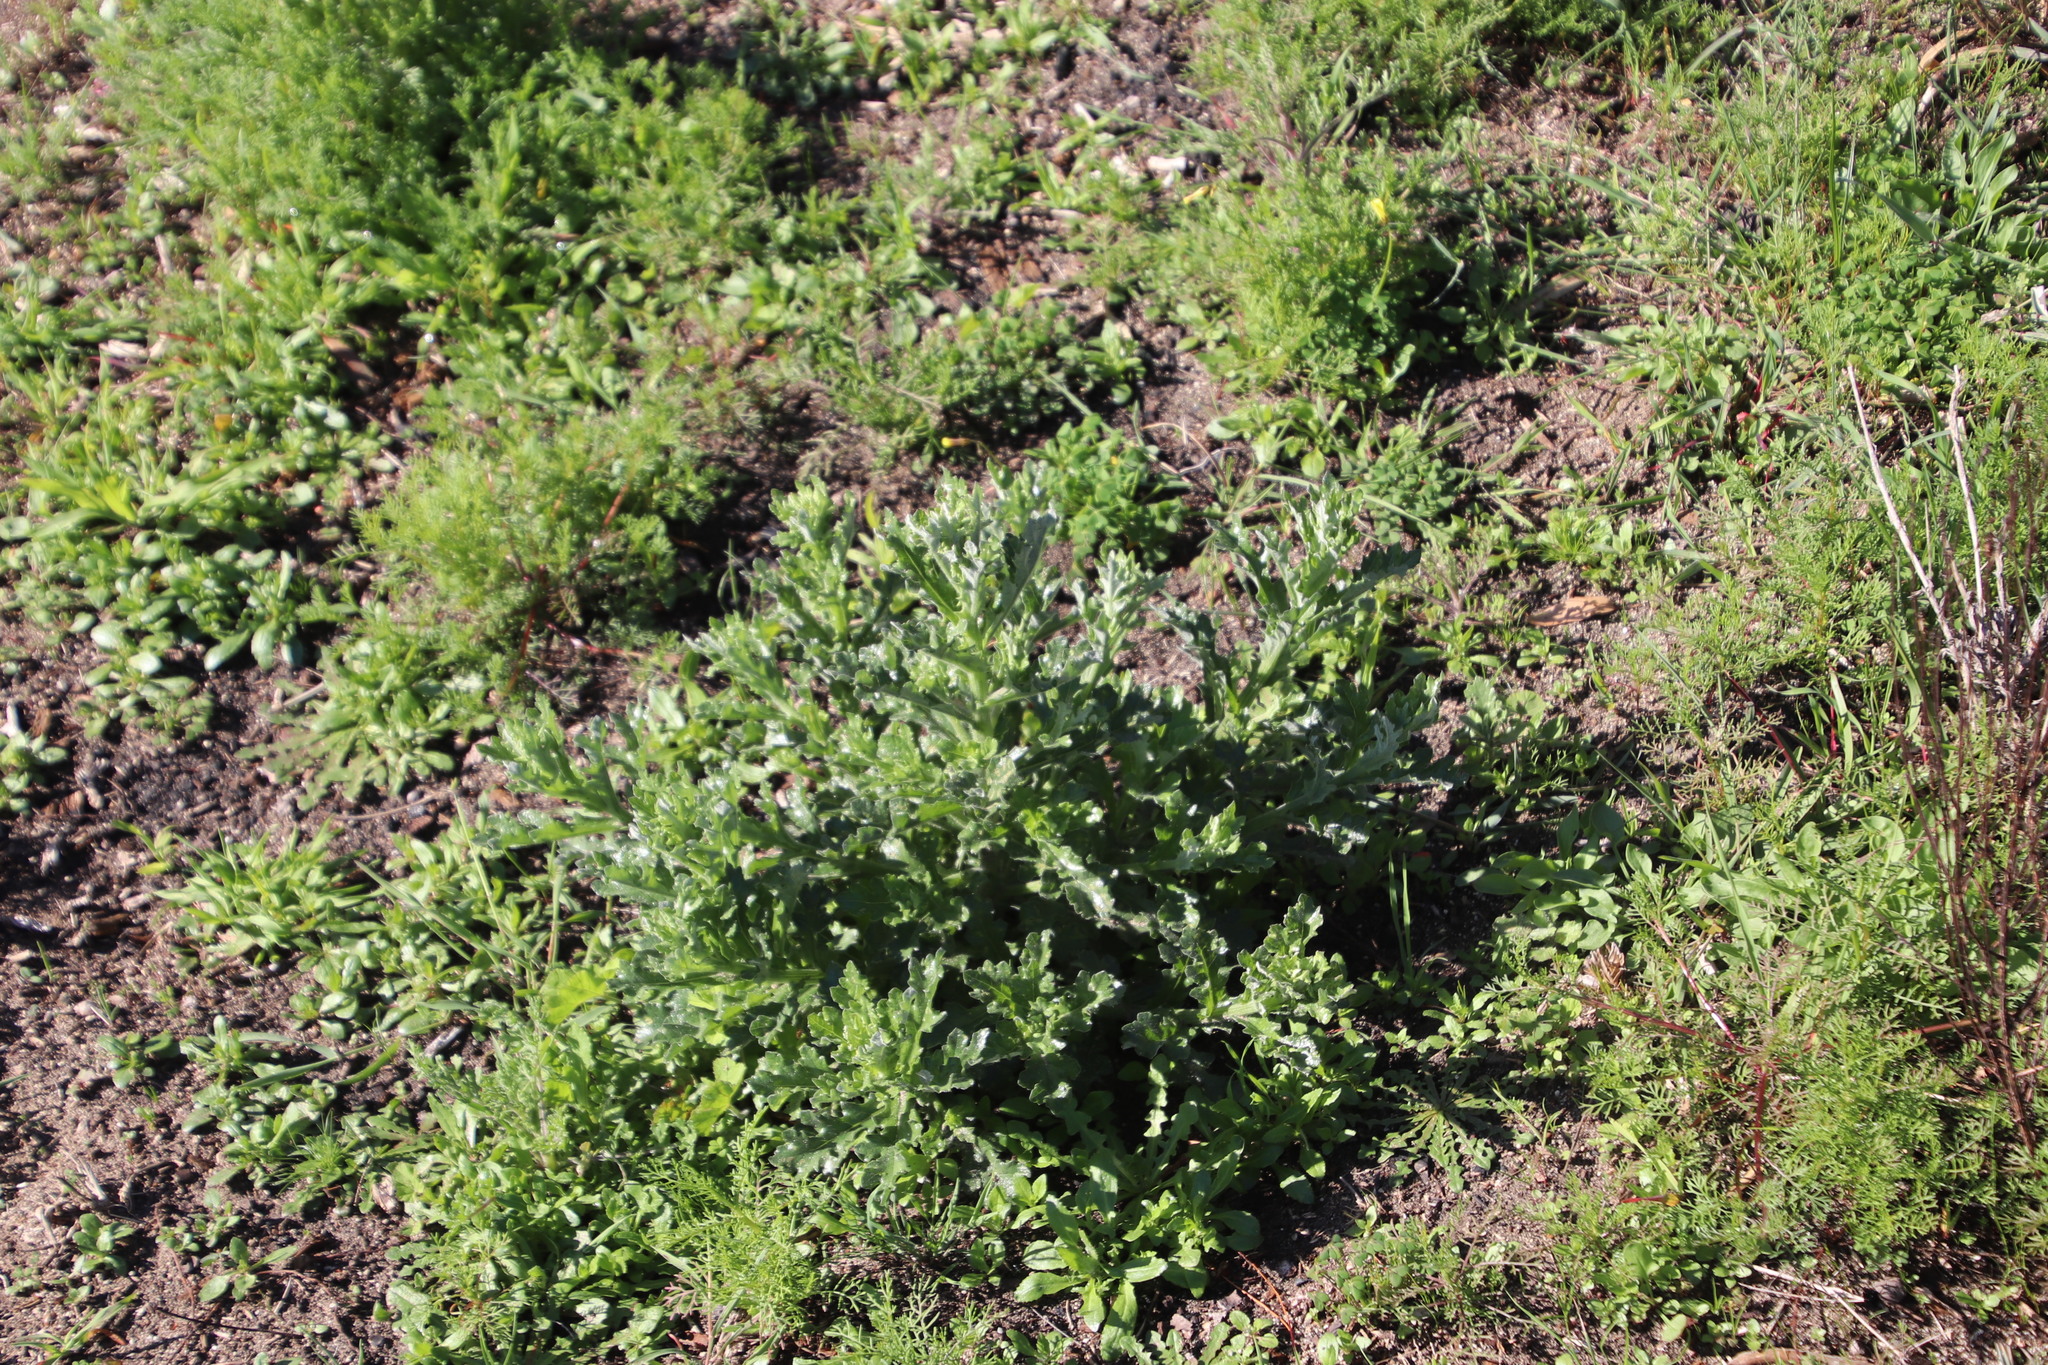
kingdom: Plantae
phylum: Tracheophyta
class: Magnoliopsida
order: Asterales
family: Asteraceae
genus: Senecio
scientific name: Senecio pubigerus
